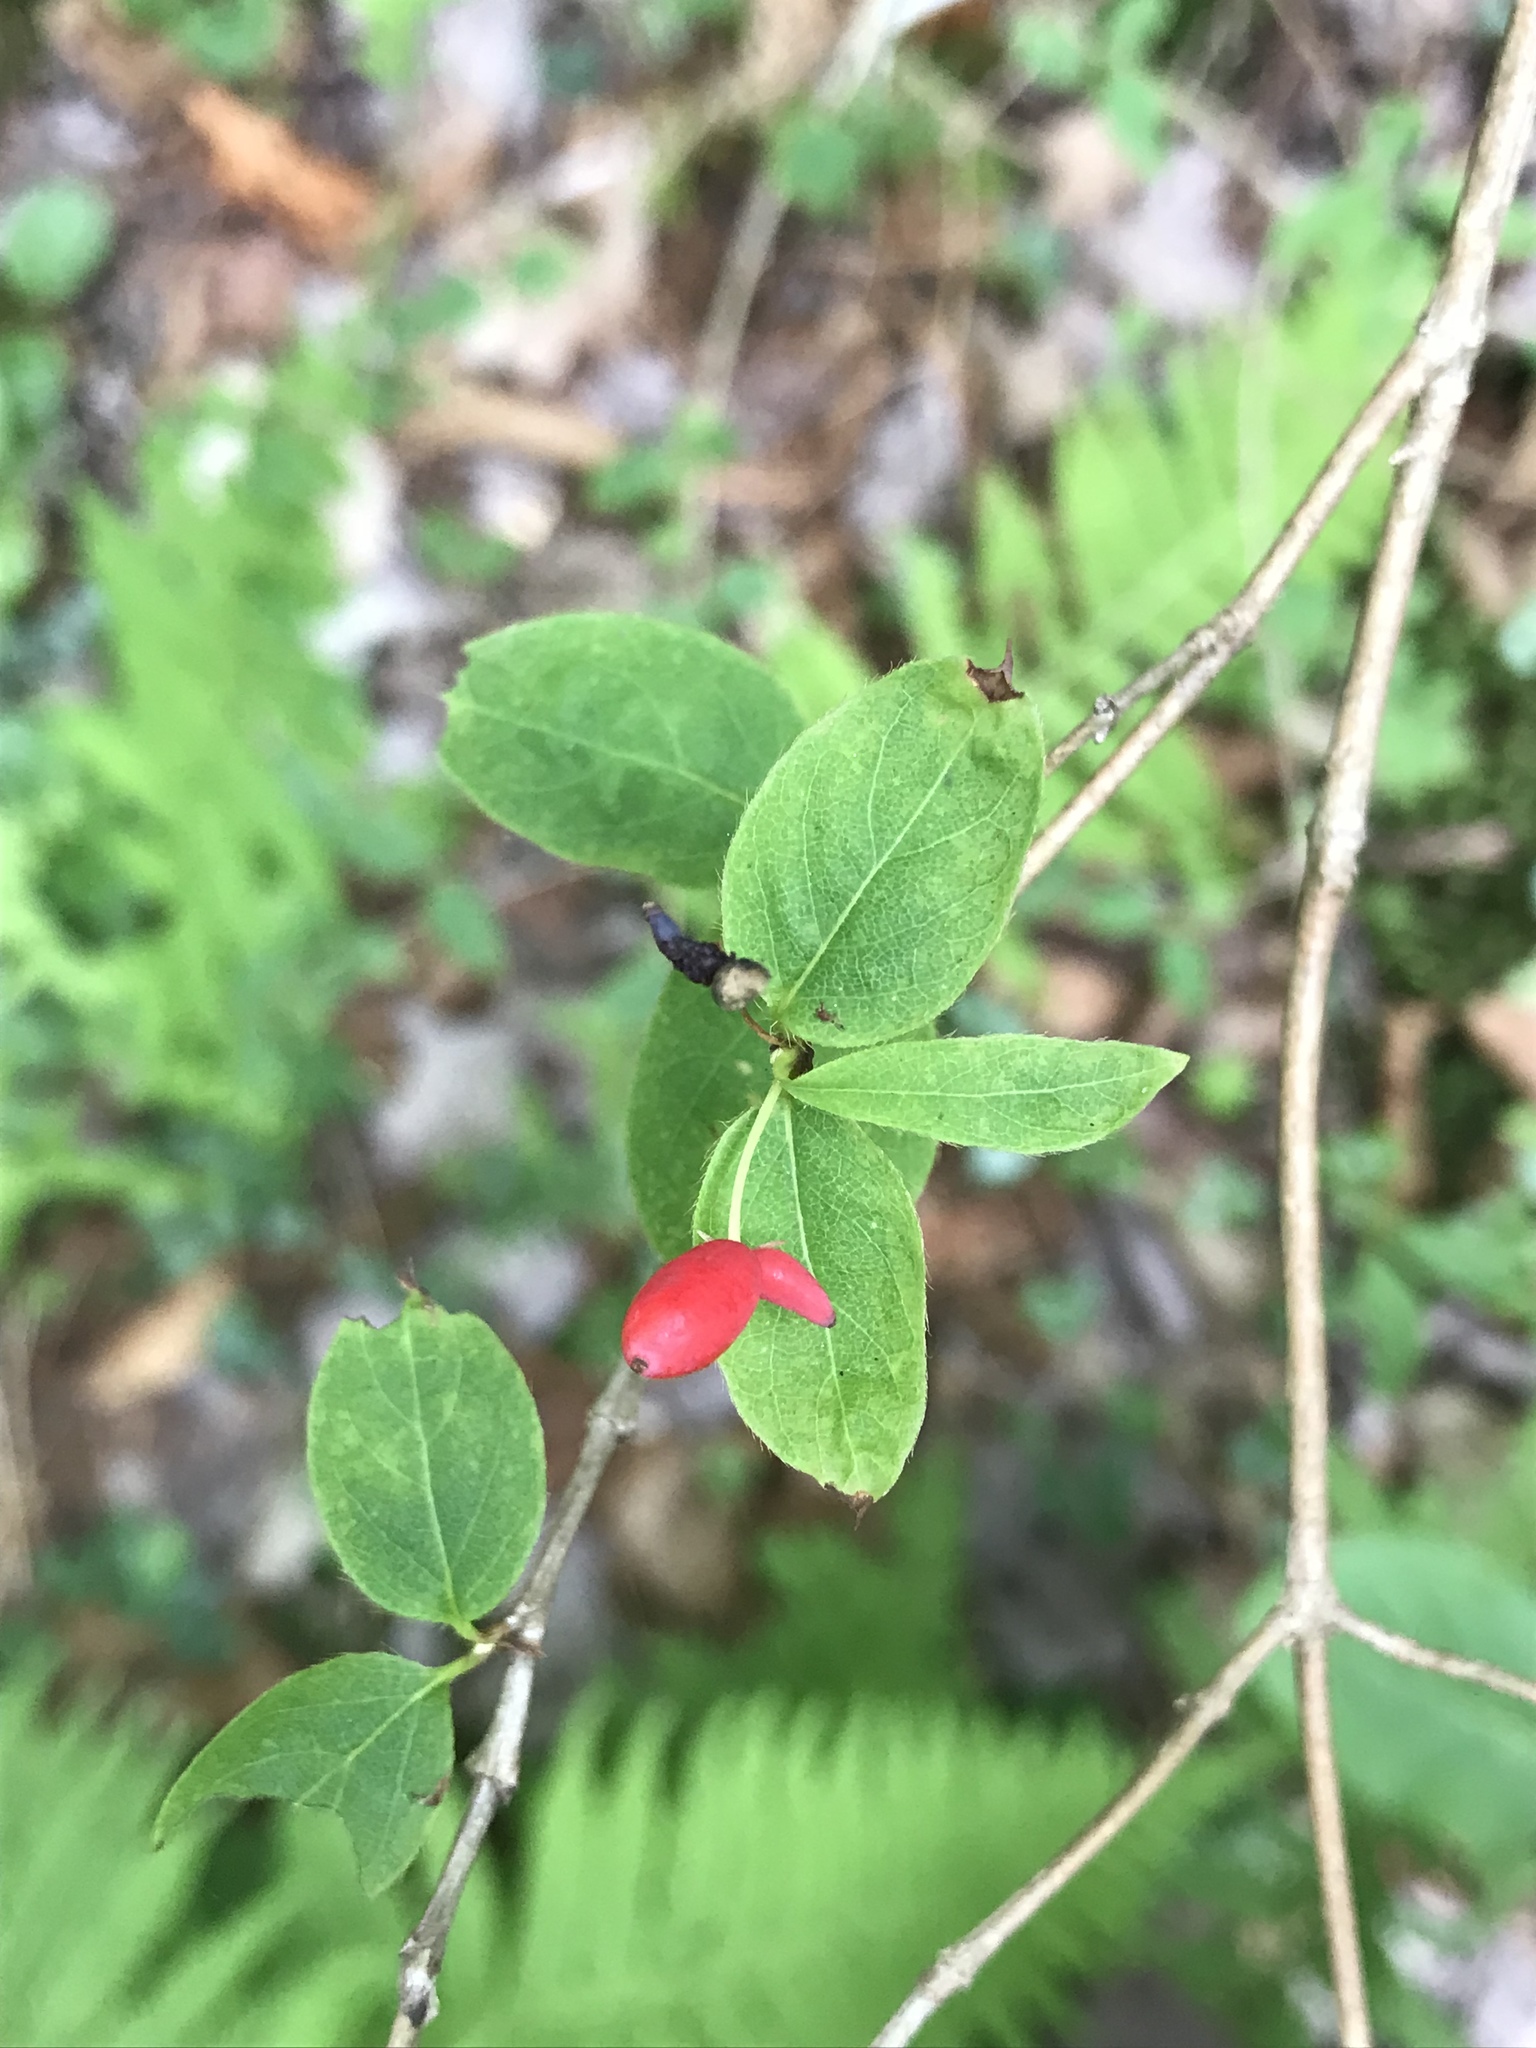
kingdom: Plantae
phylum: Tracheophyta
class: Magnoliopsida
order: Dipsacales
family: Caprifoliaceae
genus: Lonicera
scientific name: Lonicera canadensis
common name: American fly-honeysuckle
